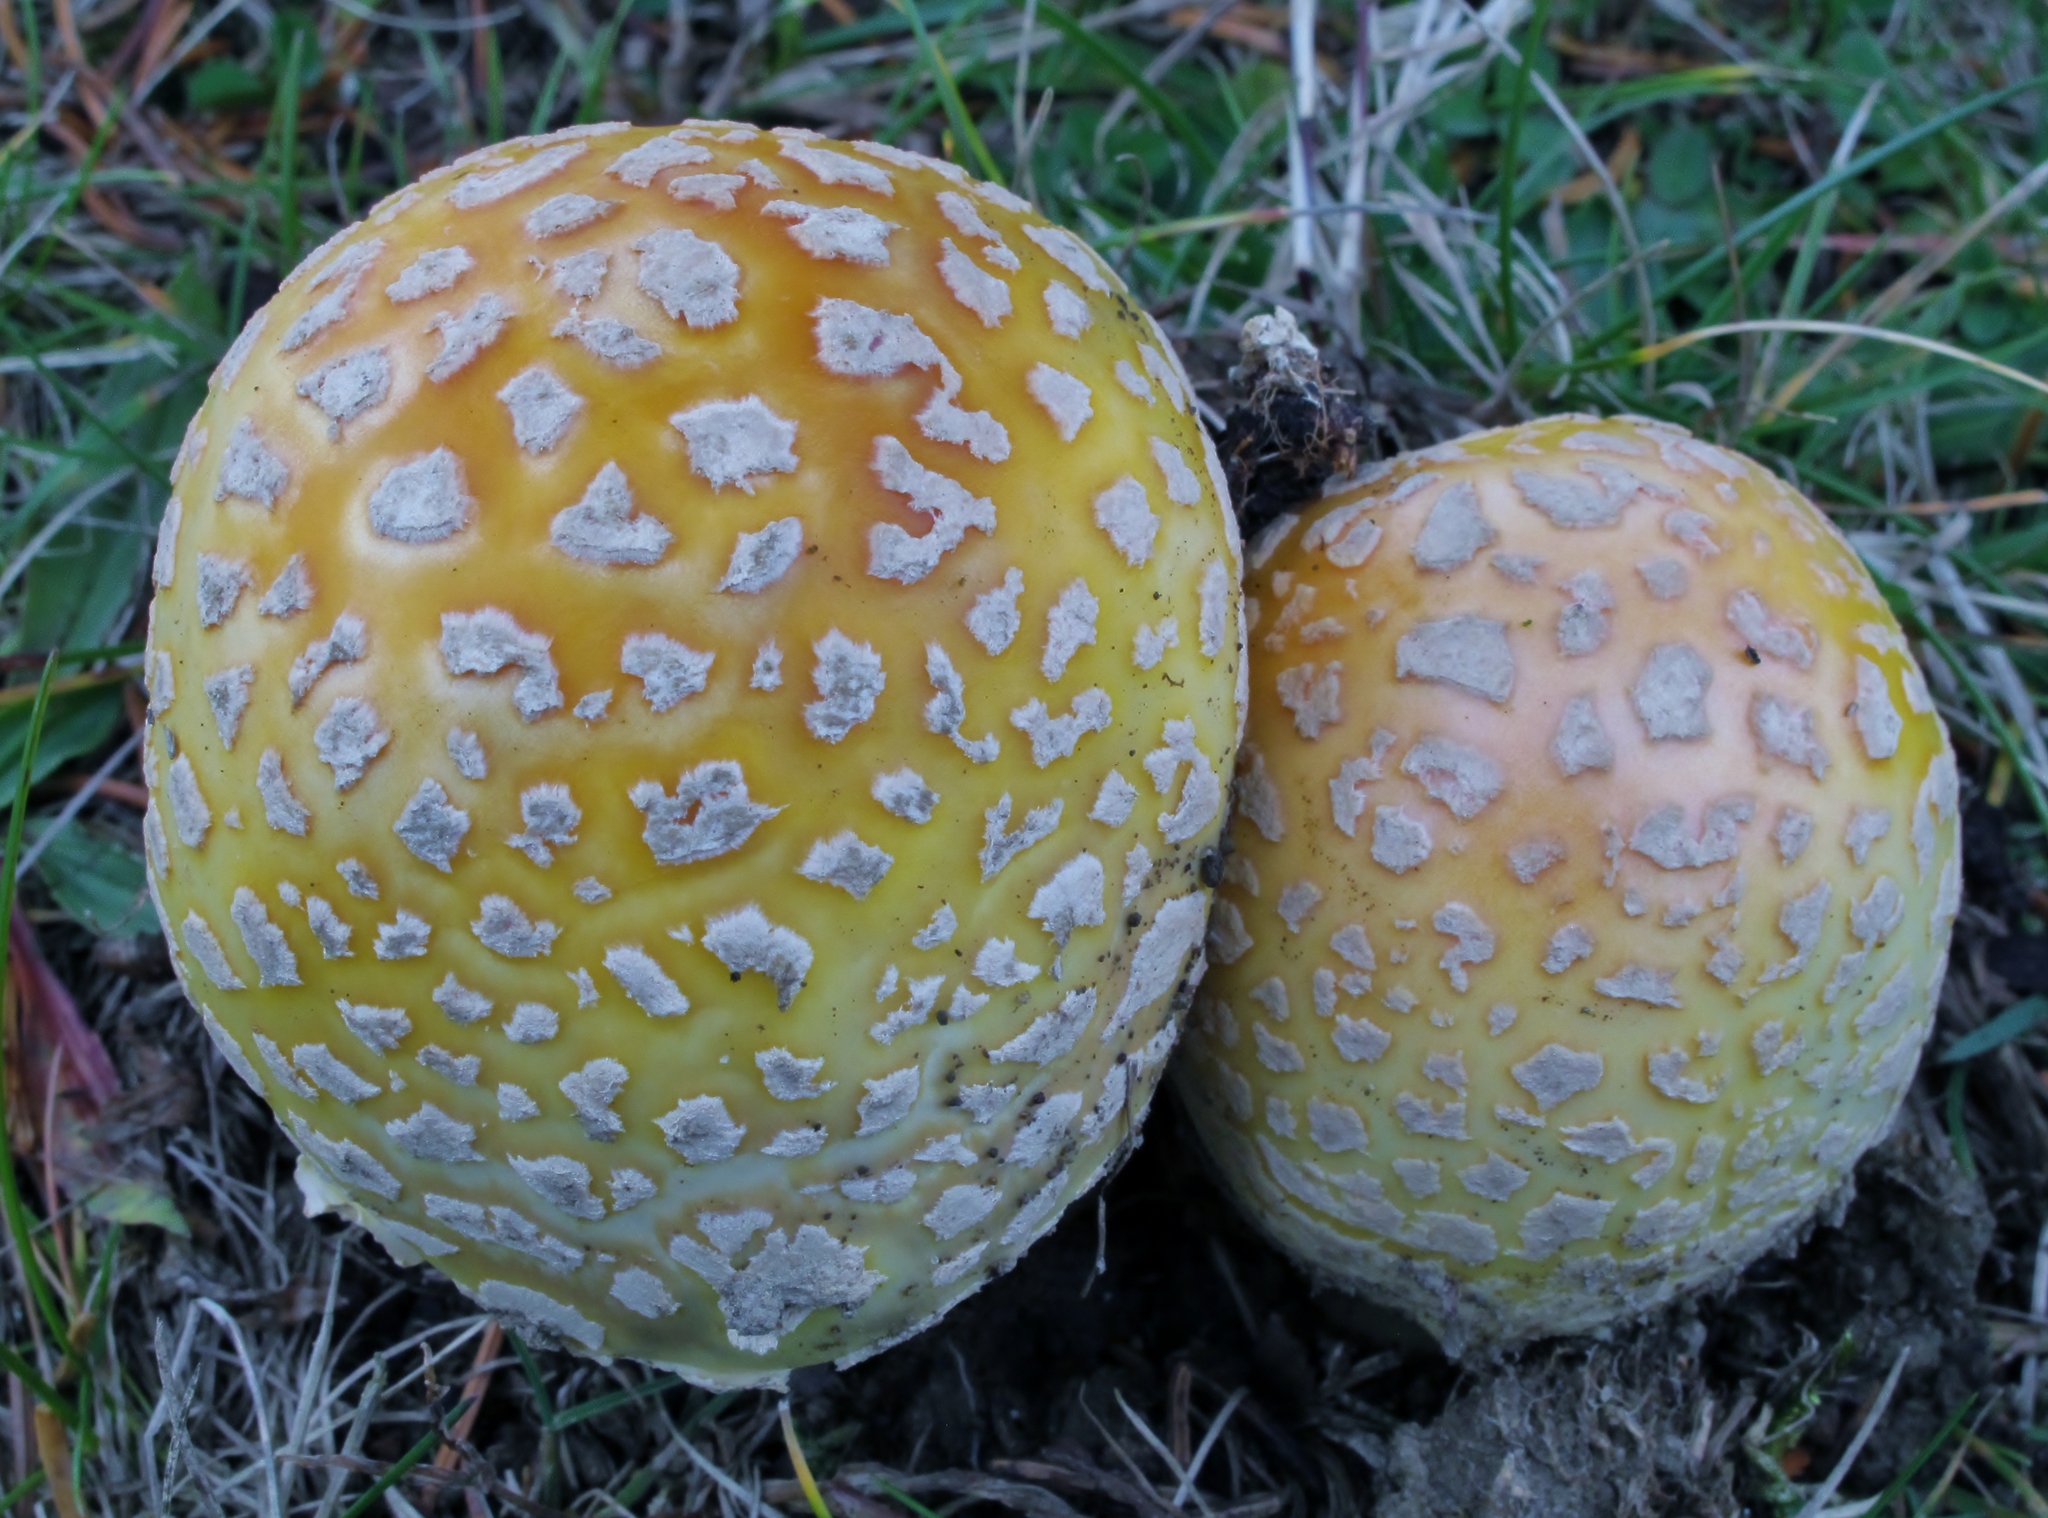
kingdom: Fungi
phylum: Basidiomycota
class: Agaricomycetes
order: Agaricales
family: Amanitaceae
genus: Amanita
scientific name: Amanita muscaria
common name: Fly agaric
